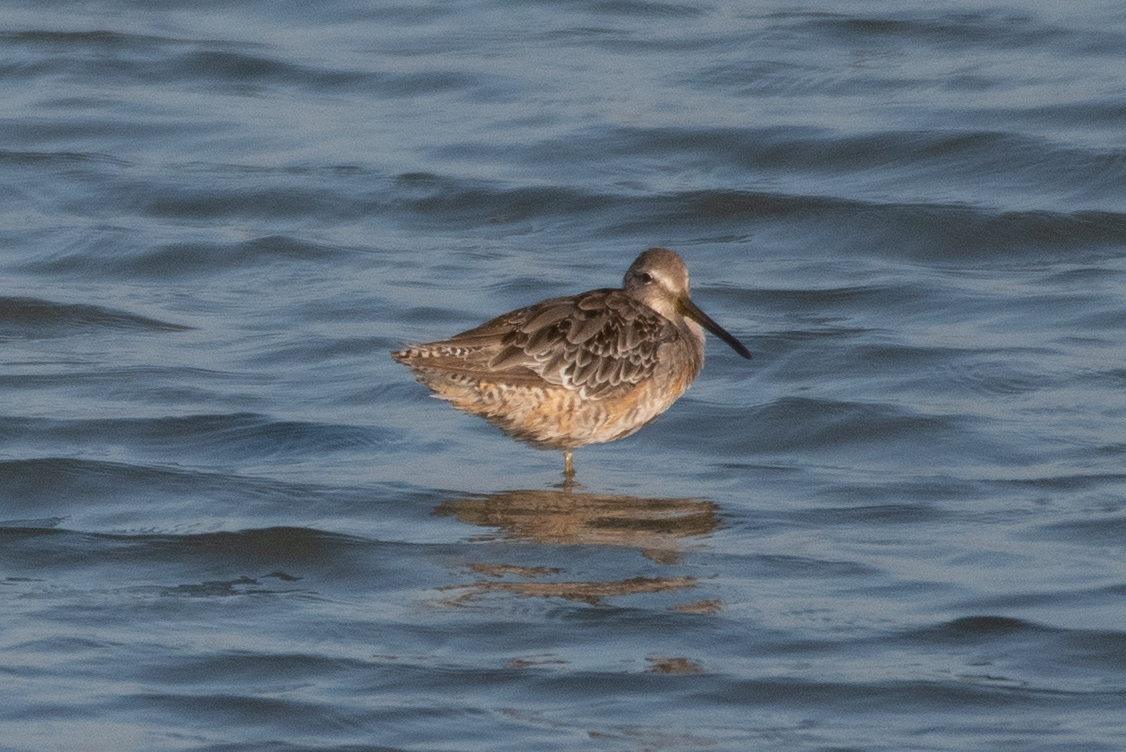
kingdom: Animalia
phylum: Chordata
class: Aves
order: Charadriiformes
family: Scolopacidae
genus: Limnodromus
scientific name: Limnodromus scolopaceus
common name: Long-billed dowitcher
